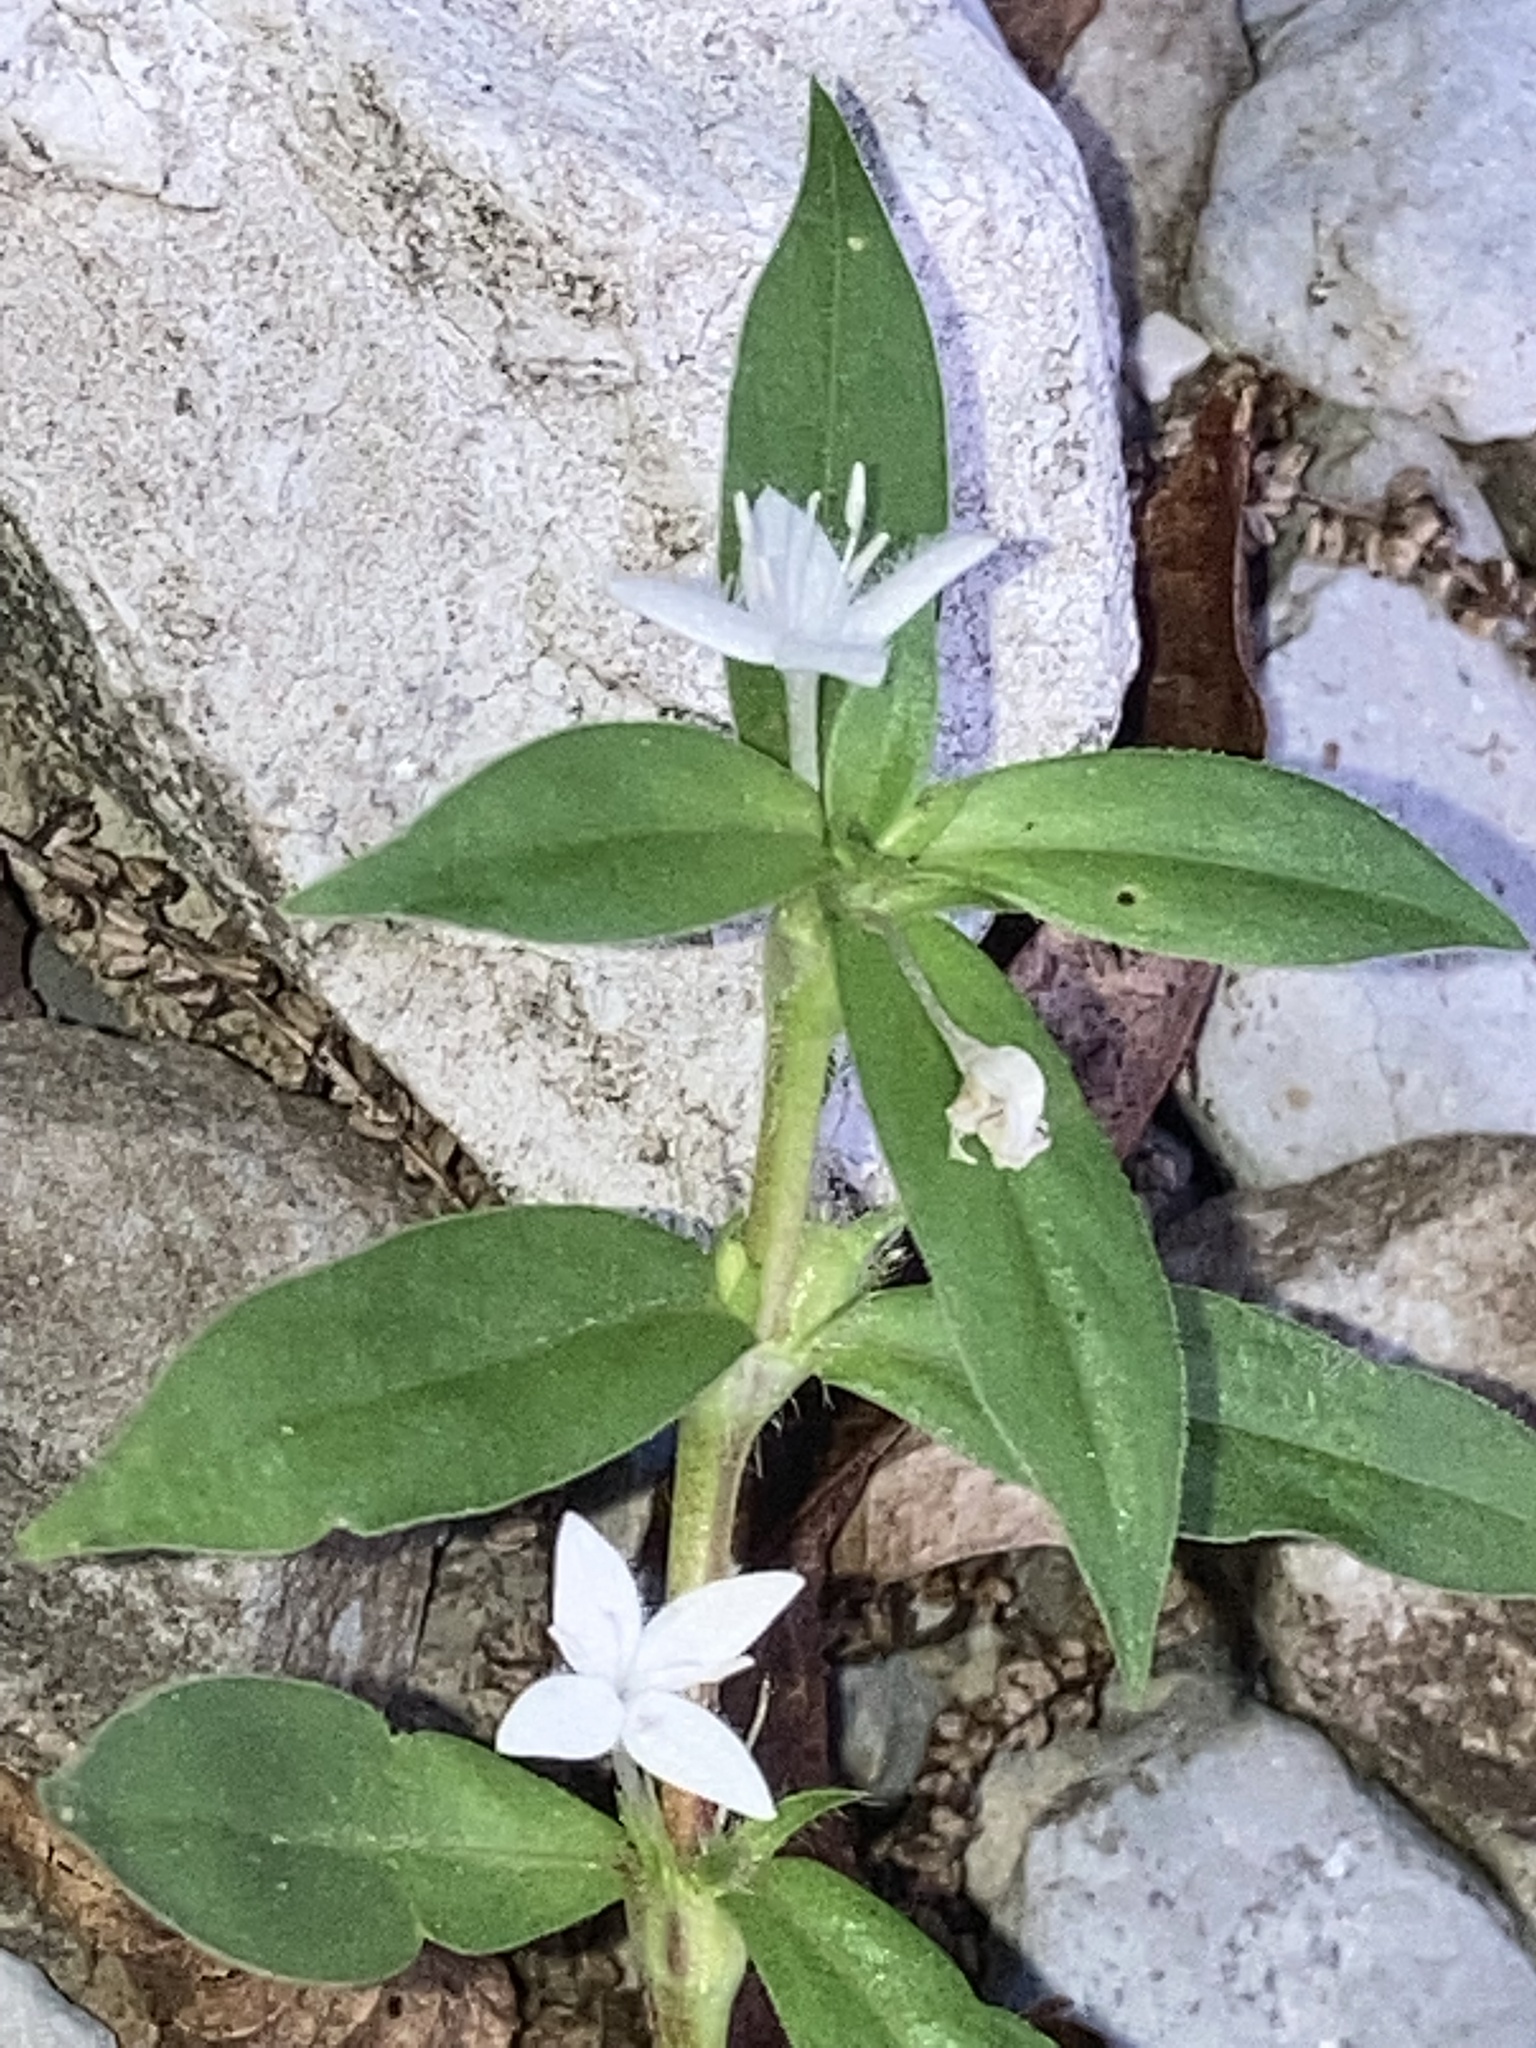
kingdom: Plantae
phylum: Tracheophyta
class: Magnoliopsida
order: Gentianales
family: Rubiaceae
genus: Diodia
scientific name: Diodia virginiana
